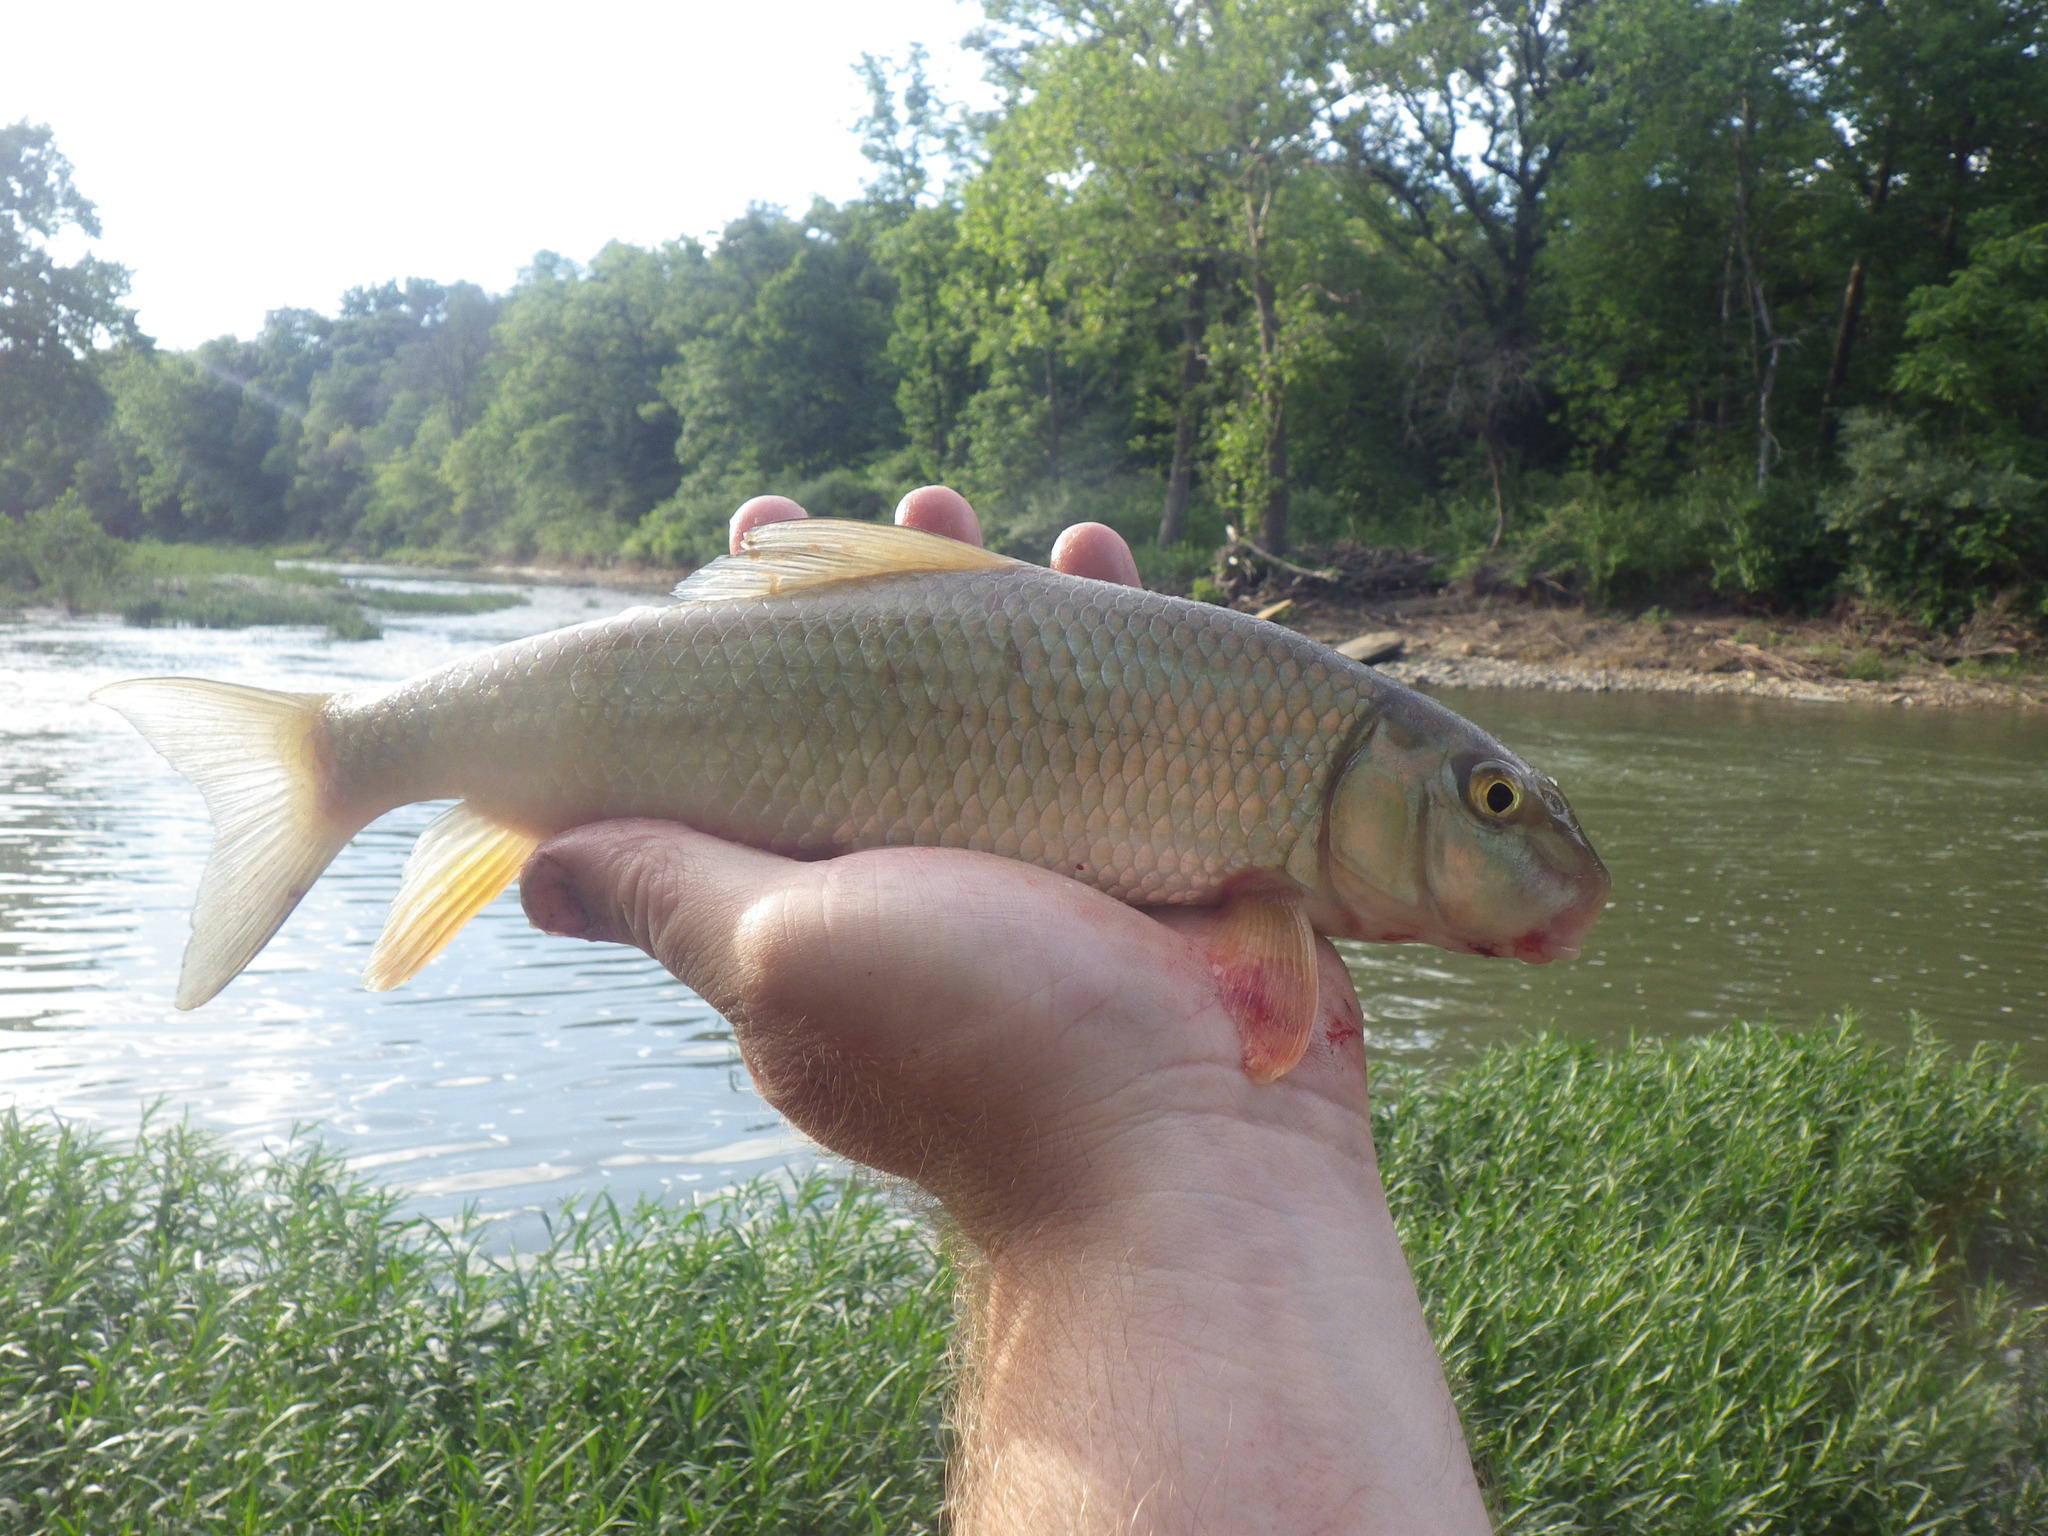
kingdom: Animalia
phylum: Chordata
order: Cypriniformes
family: Catostomidae
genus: Moxostoma
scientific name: Moxostoma erythrurum
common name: Golden redhorse
